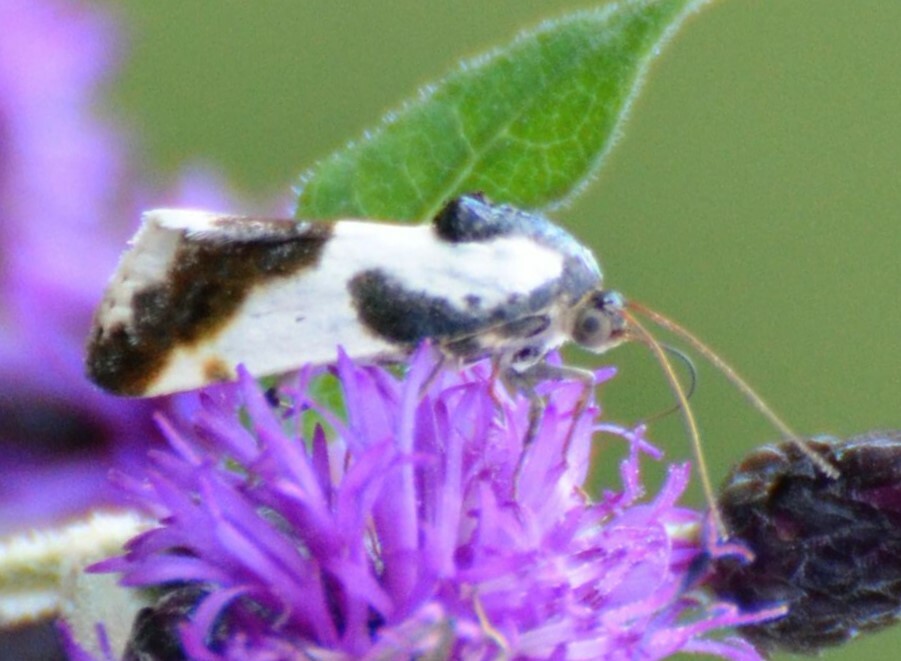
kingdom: Animalia
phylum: Arthropoda
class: Insecta
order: Lepidoptera
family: Noctuidae
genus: Acontia
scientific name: Acontia delecta
